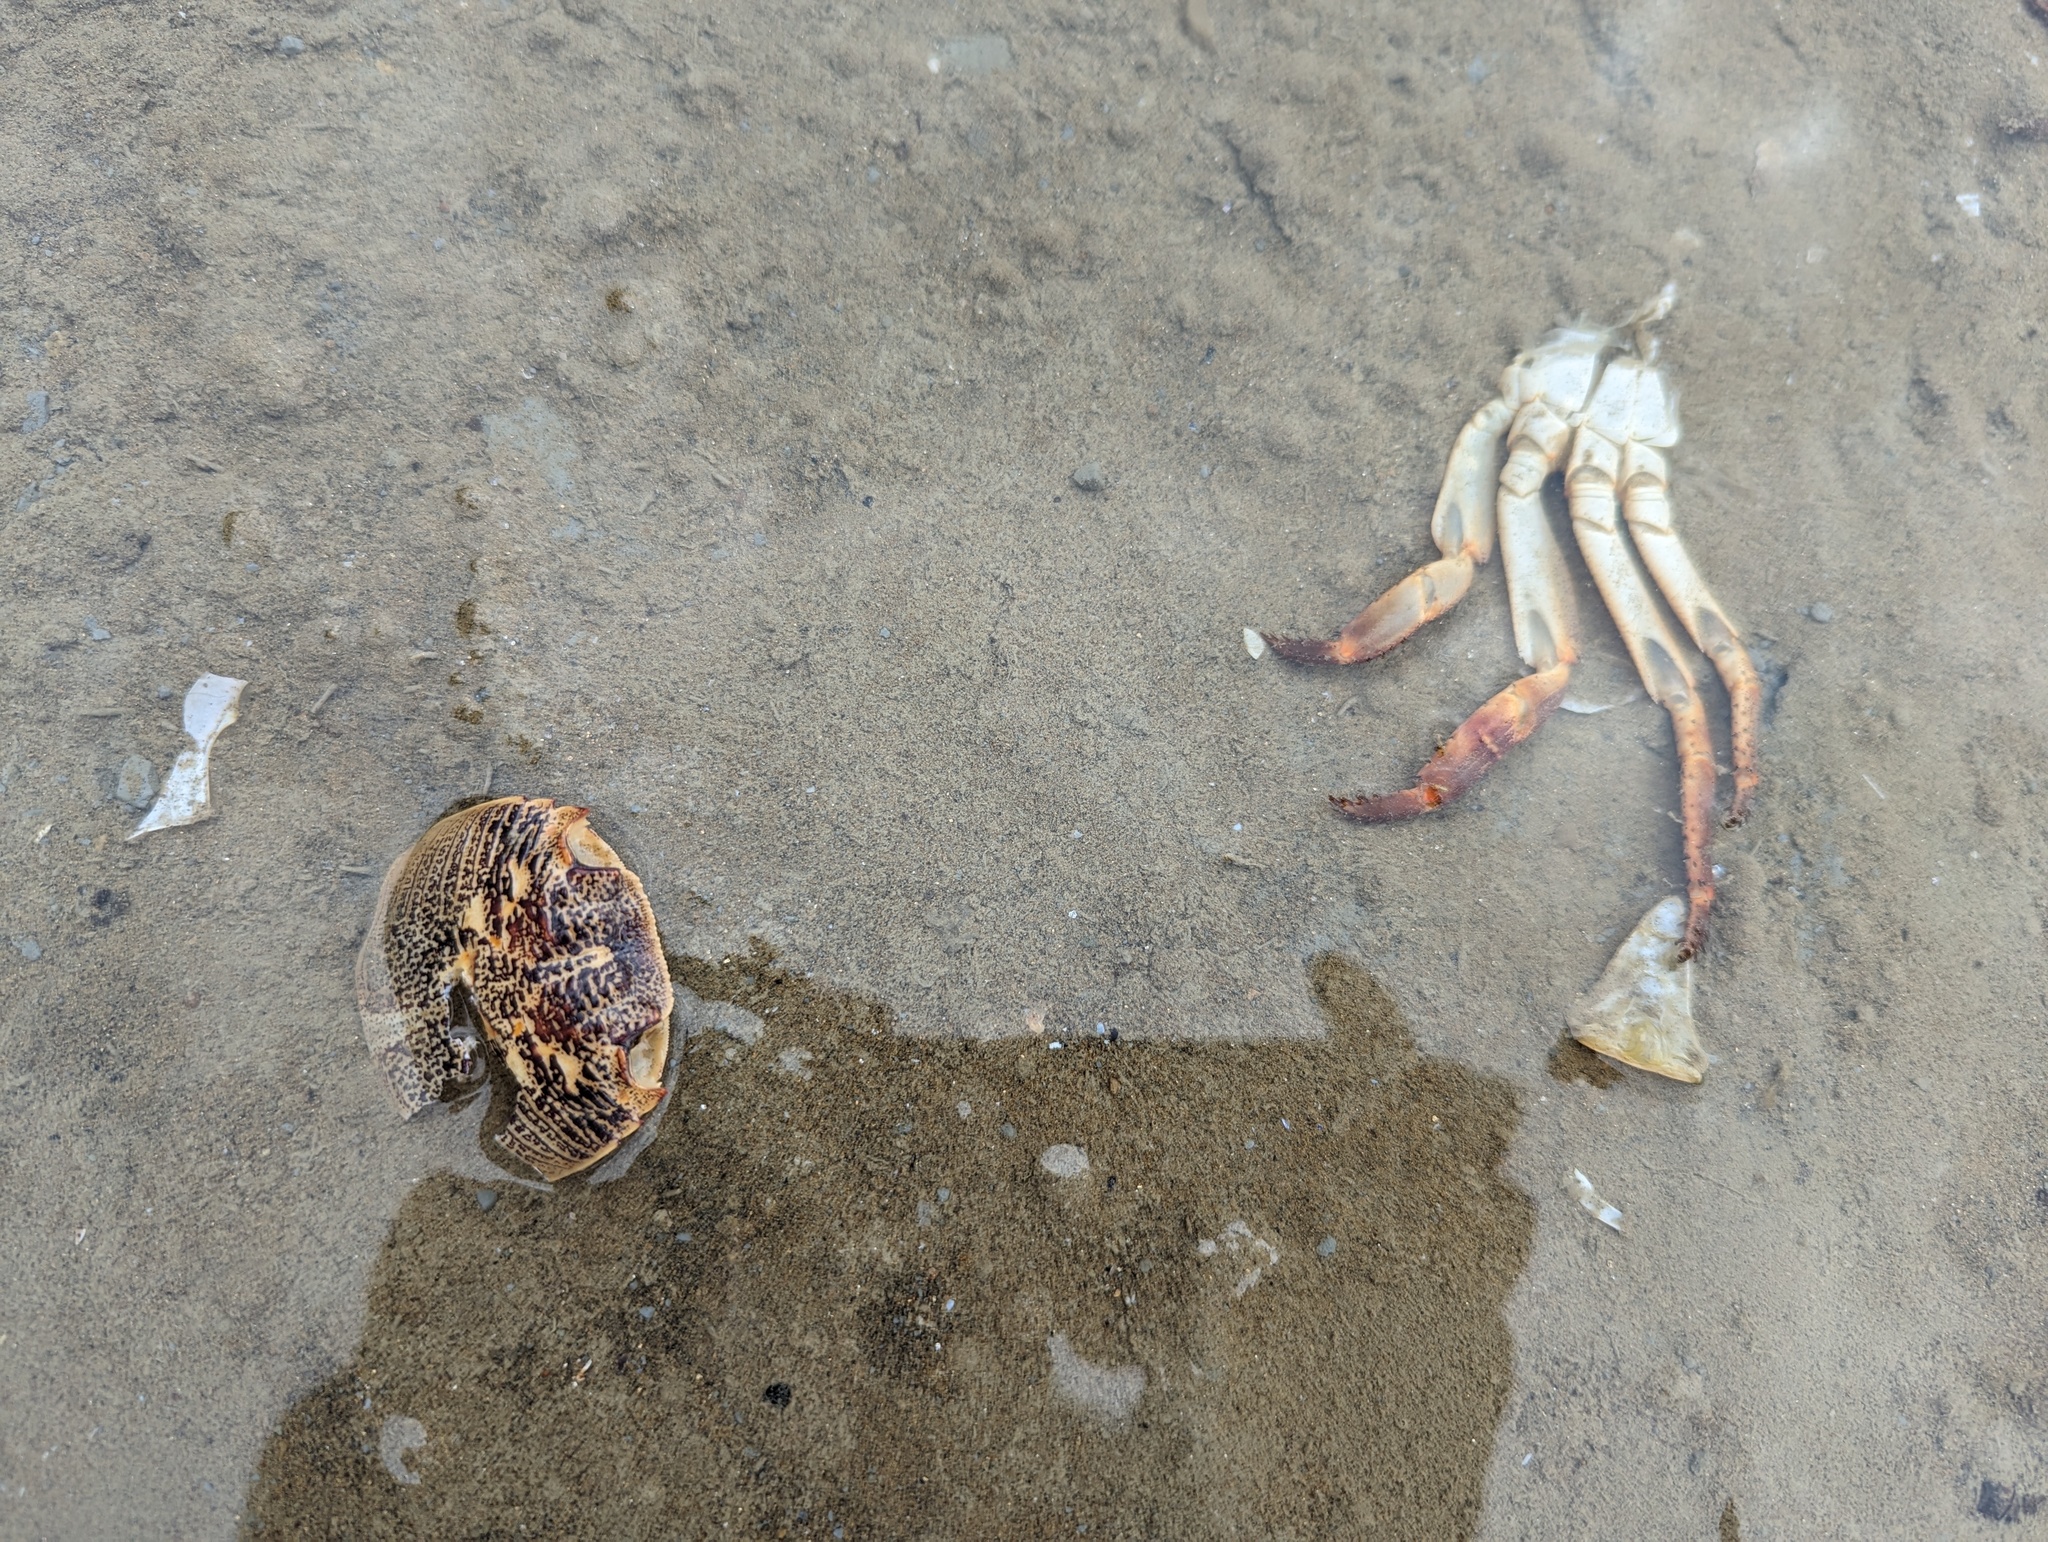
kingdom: Animalia
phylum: Arthropoda
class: Malacostraca
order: Decapoda
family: Grapsidae
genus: Leptograpsus
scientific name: Leptograpsus variegatus
